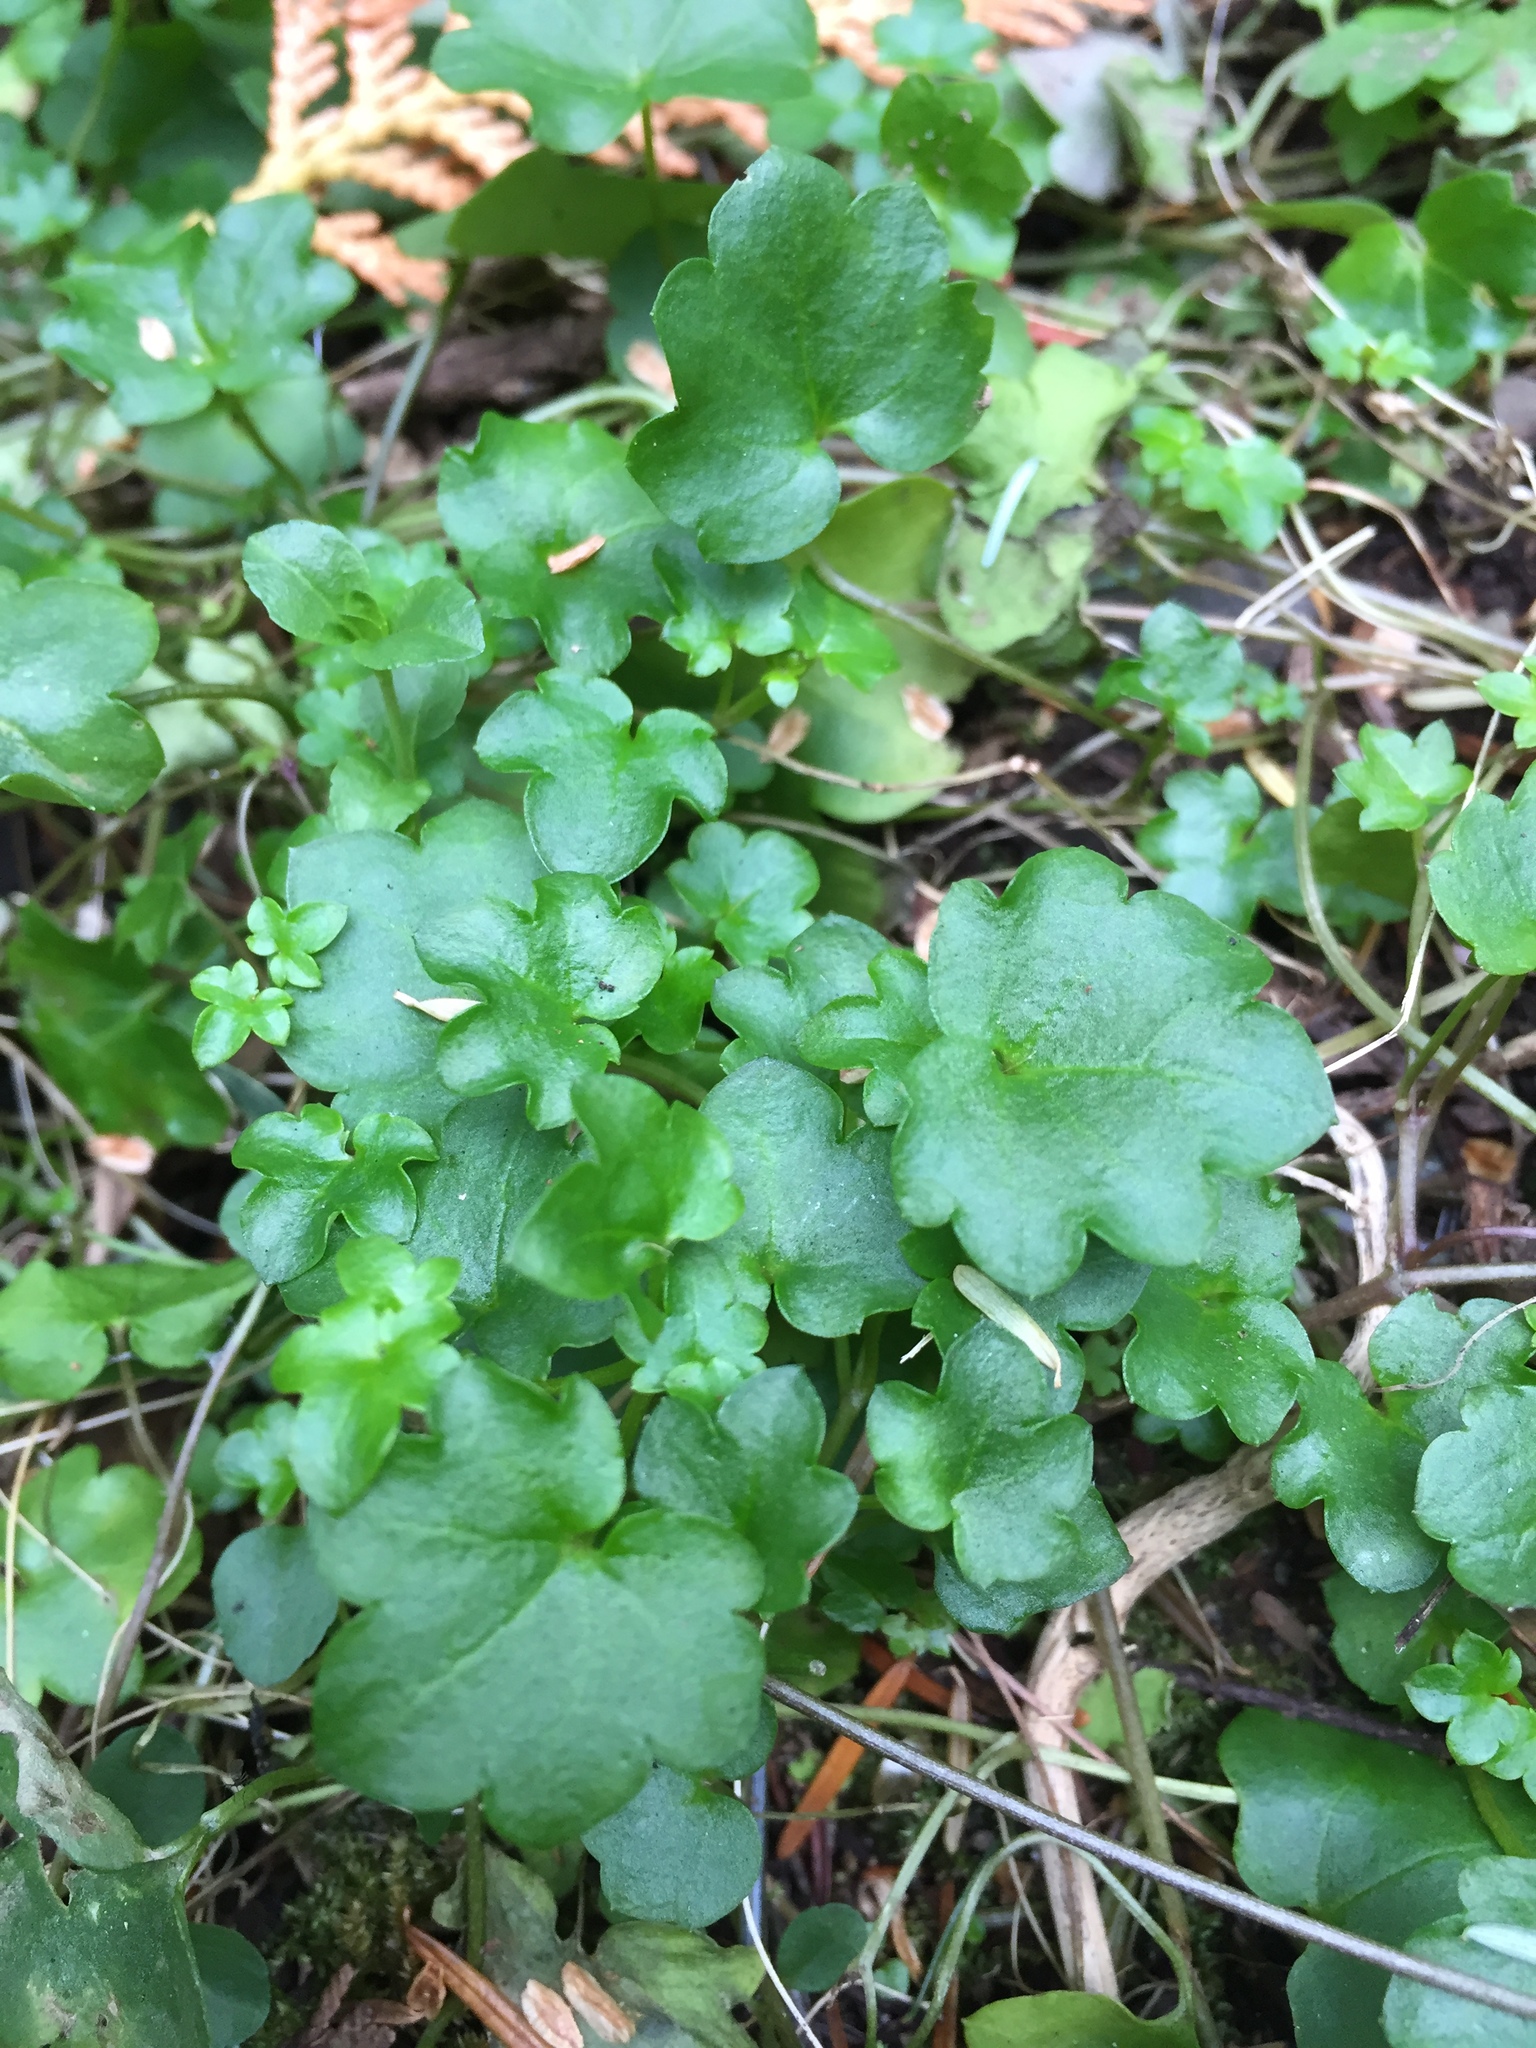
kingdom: Plantae
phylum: Tracheophyta
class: Magnoliopsida
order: Lamiales
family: Plantaginaceae
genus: Cymbalaria
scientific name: Cymbalaria muralis
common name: Ivy-leaved toadflax
